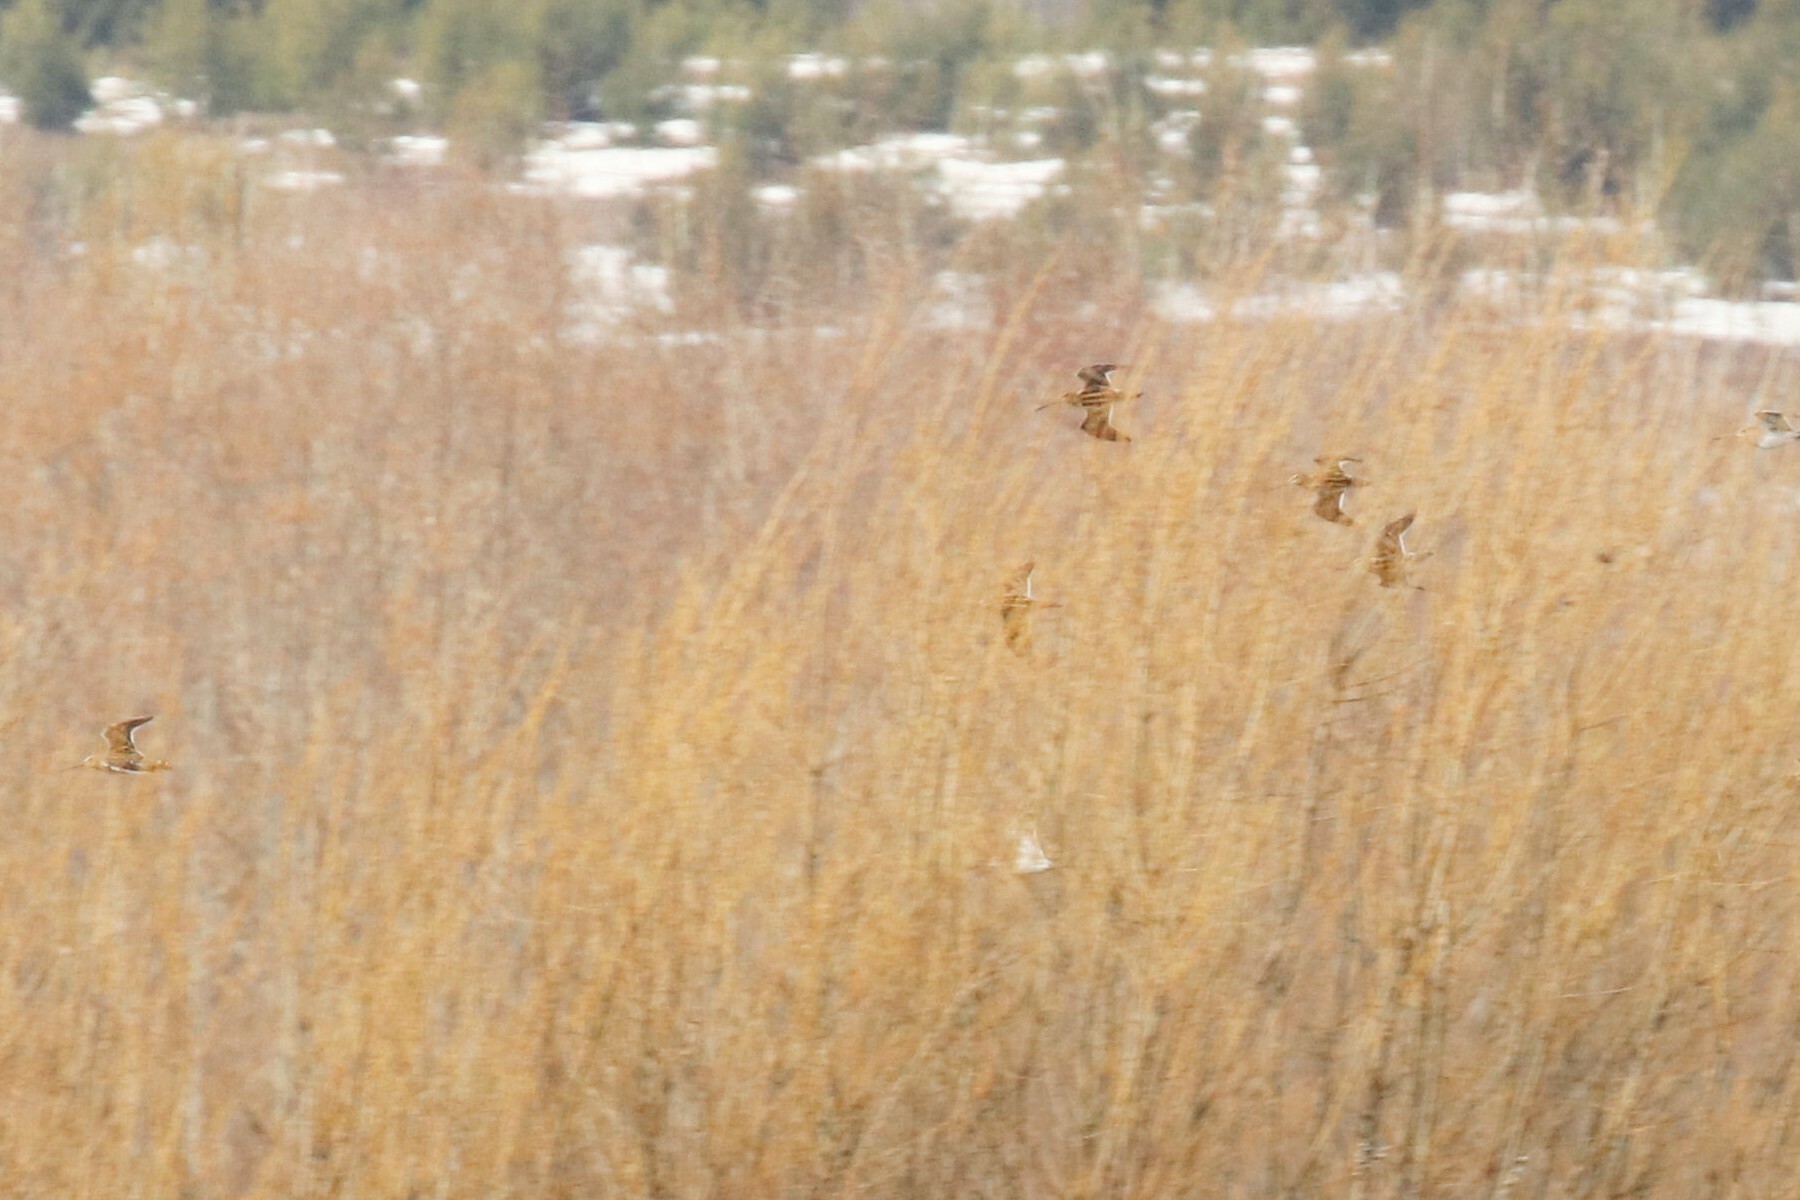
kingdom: Animalia
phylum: Chordata
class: Aves
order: Charadriiformes
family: Scolopacidae
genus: Gallinago
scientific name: Gallinago gallinago
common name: Common snipe
